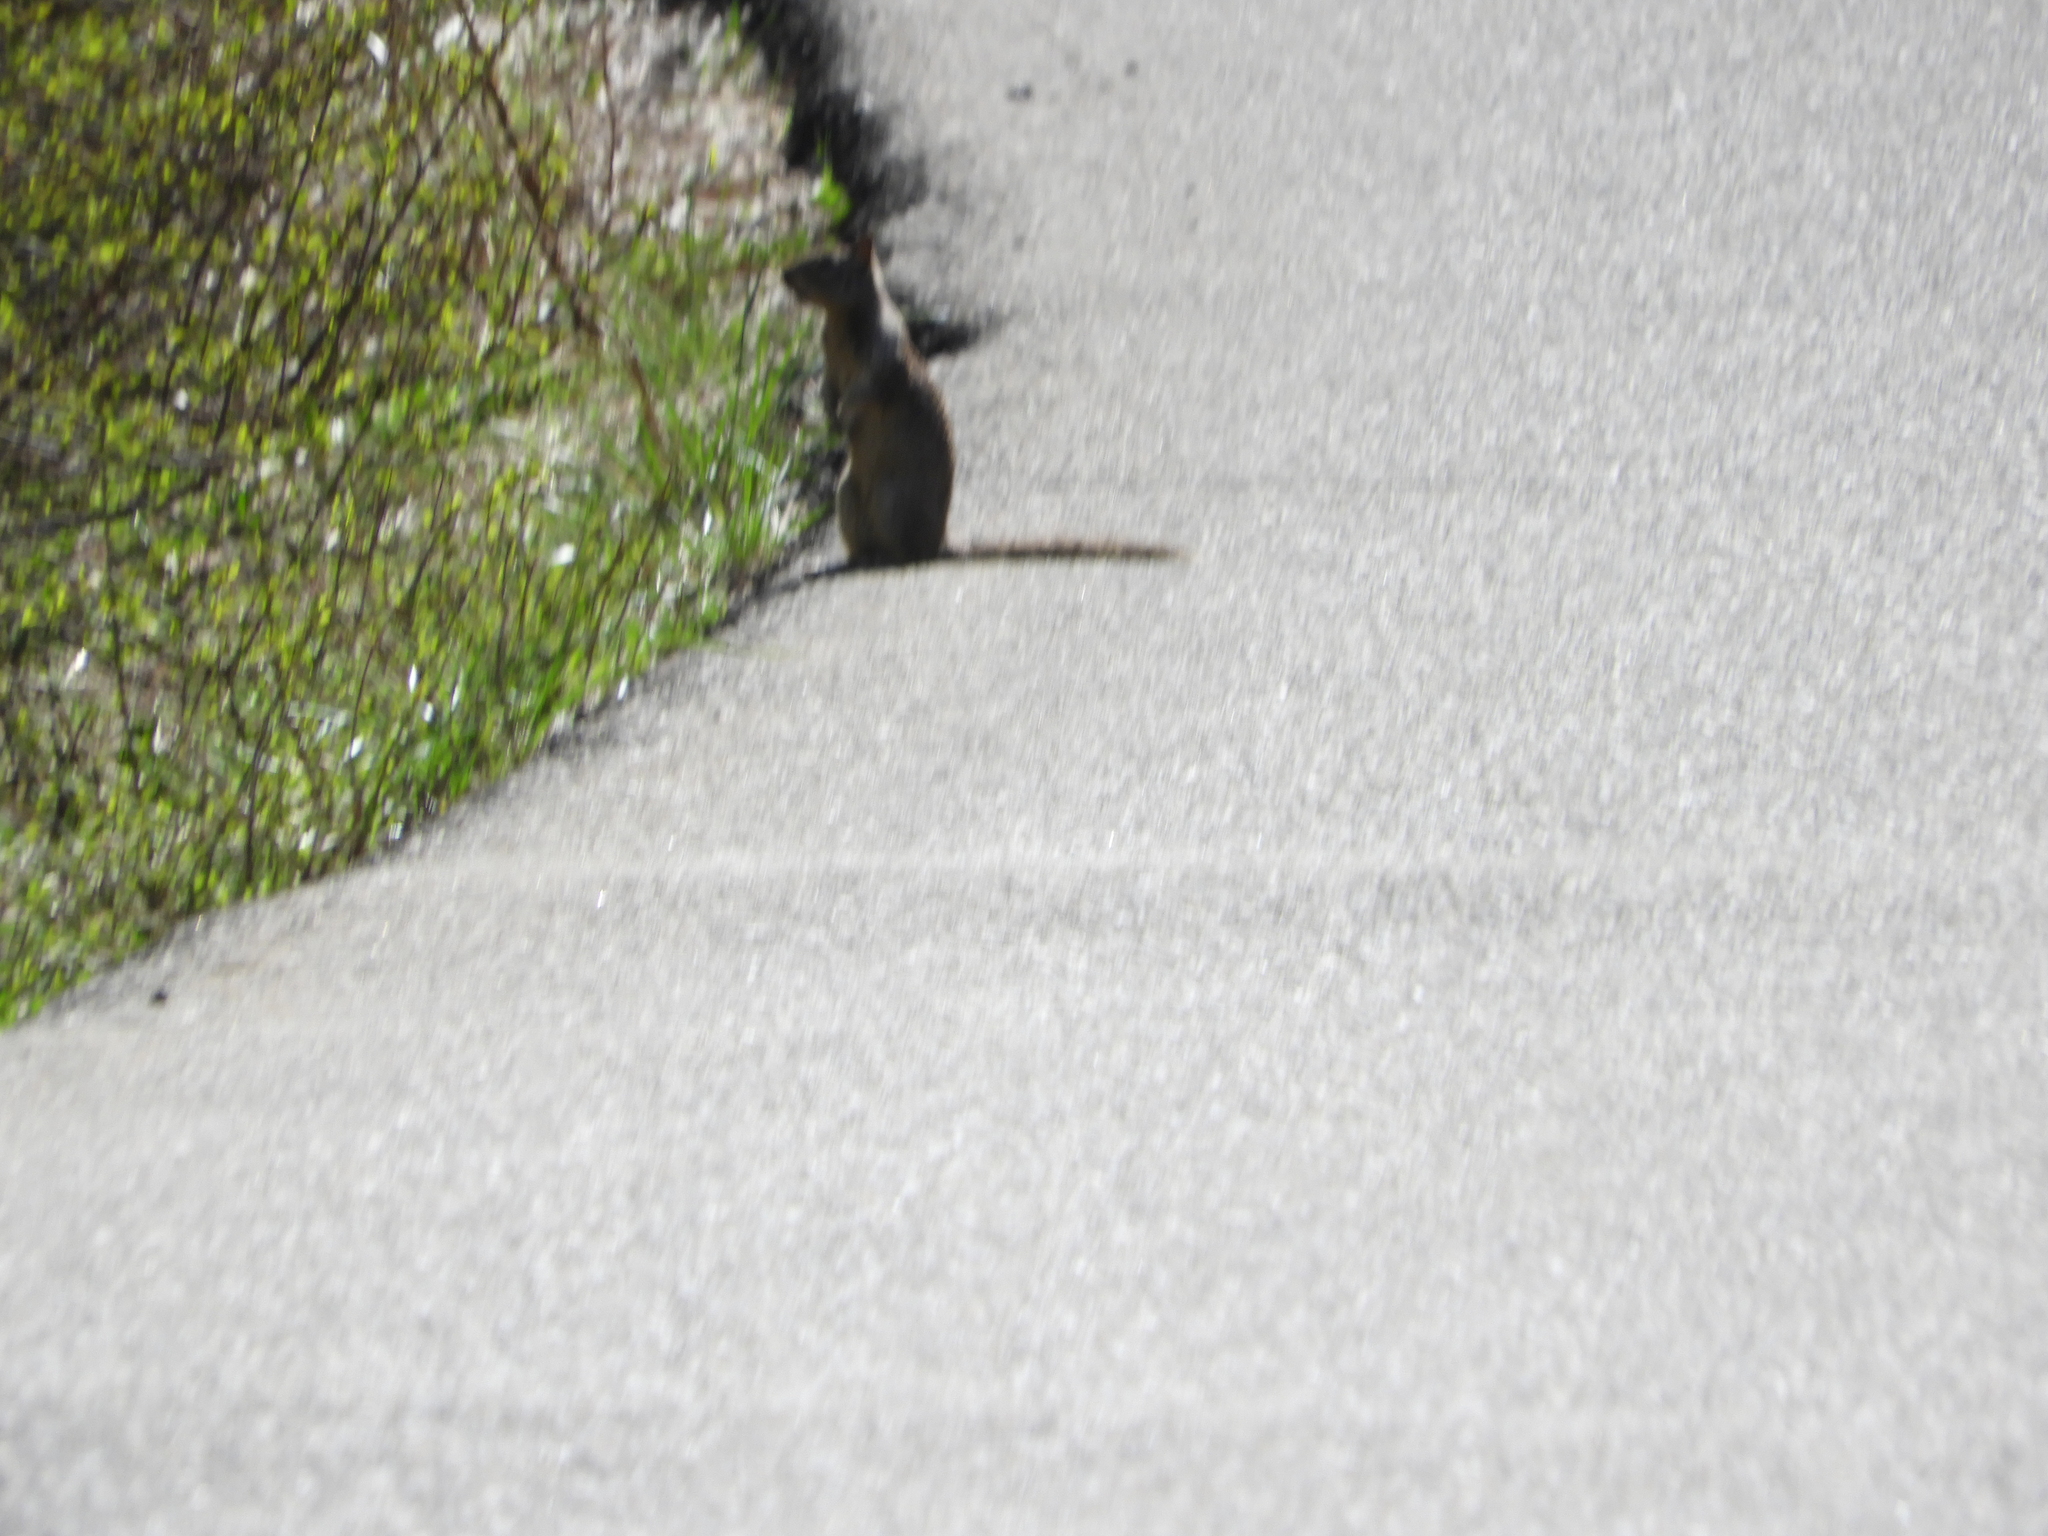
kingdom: Animalia
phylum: Chordata
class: Mammalia
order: Rodentia
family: Sciuridae
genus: Otospermophilus
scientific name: Otospermophilus beecheyi
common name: California ground squirrel
